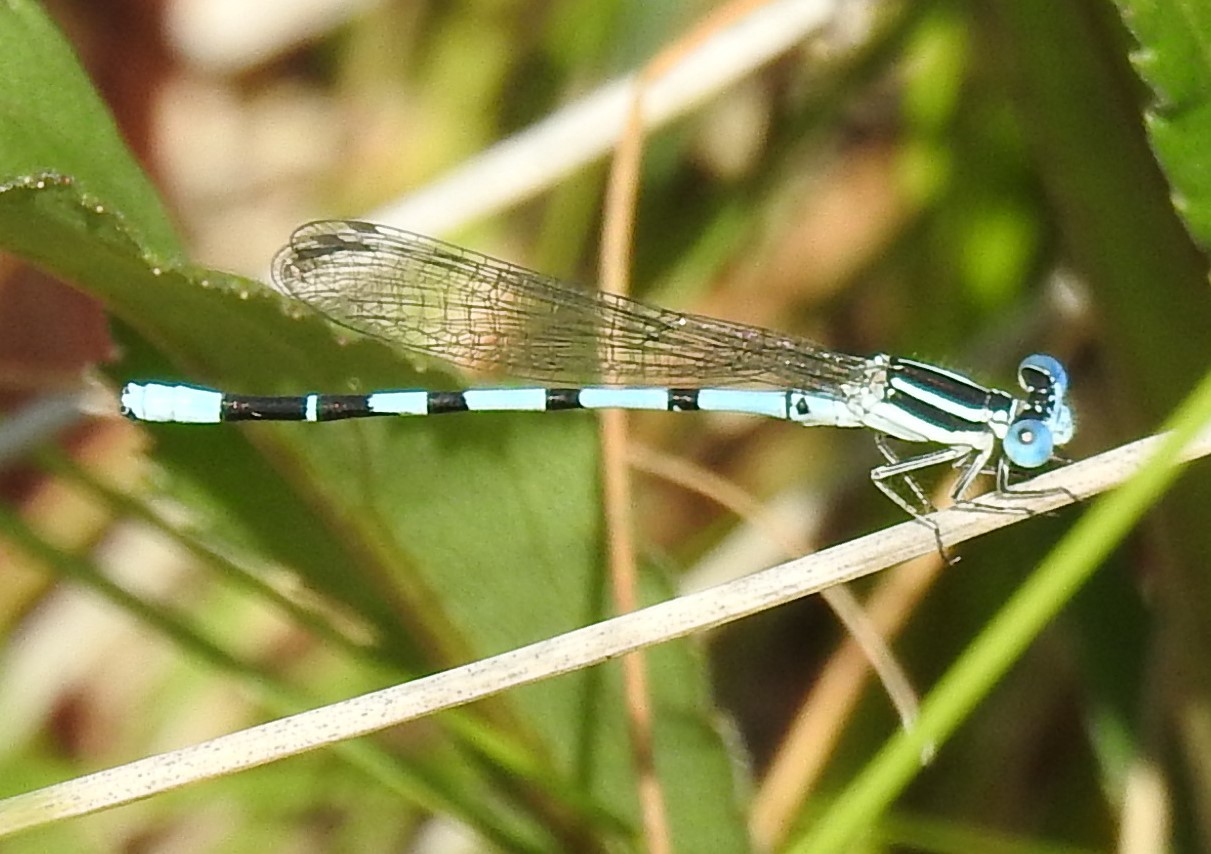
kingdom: Animalia
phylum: Arthropoda
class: Insecta
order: Odonata
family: Coenagrionidae
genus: Argia
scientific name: Argia bipunctulata
